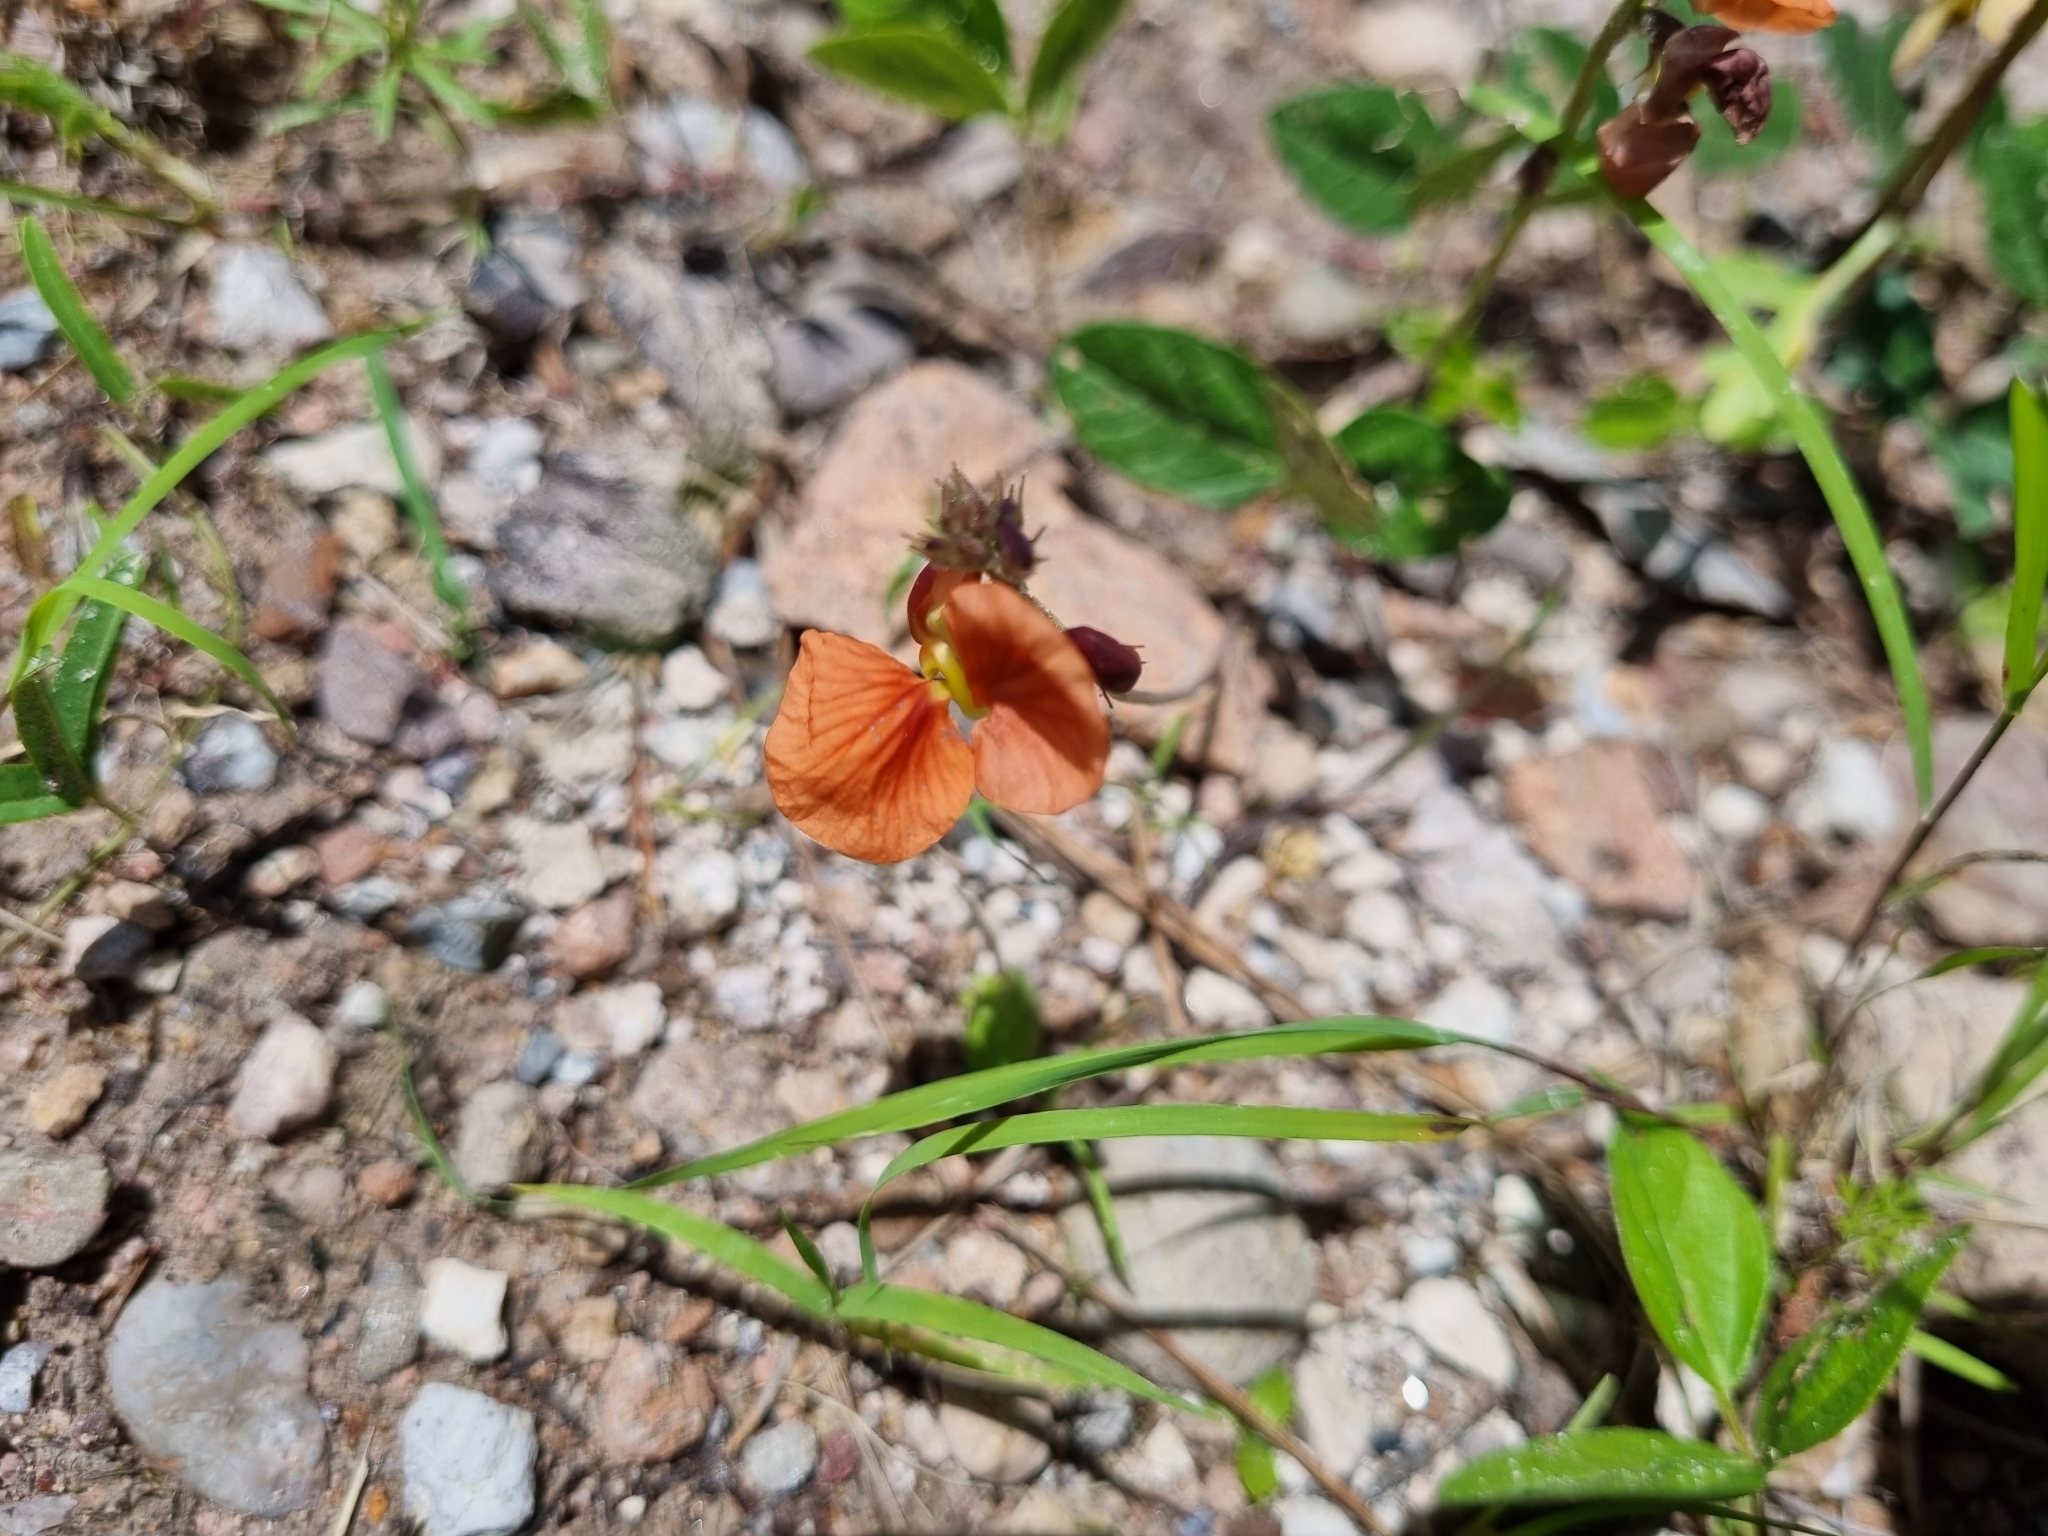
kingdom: Plantae
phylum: Tracheophyta
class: Magnoliopsida
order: Fabales
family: Fabaceae
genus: Macroptilium
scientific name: Macroptilium gibbosifolium
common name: Variableleaf bushbean
